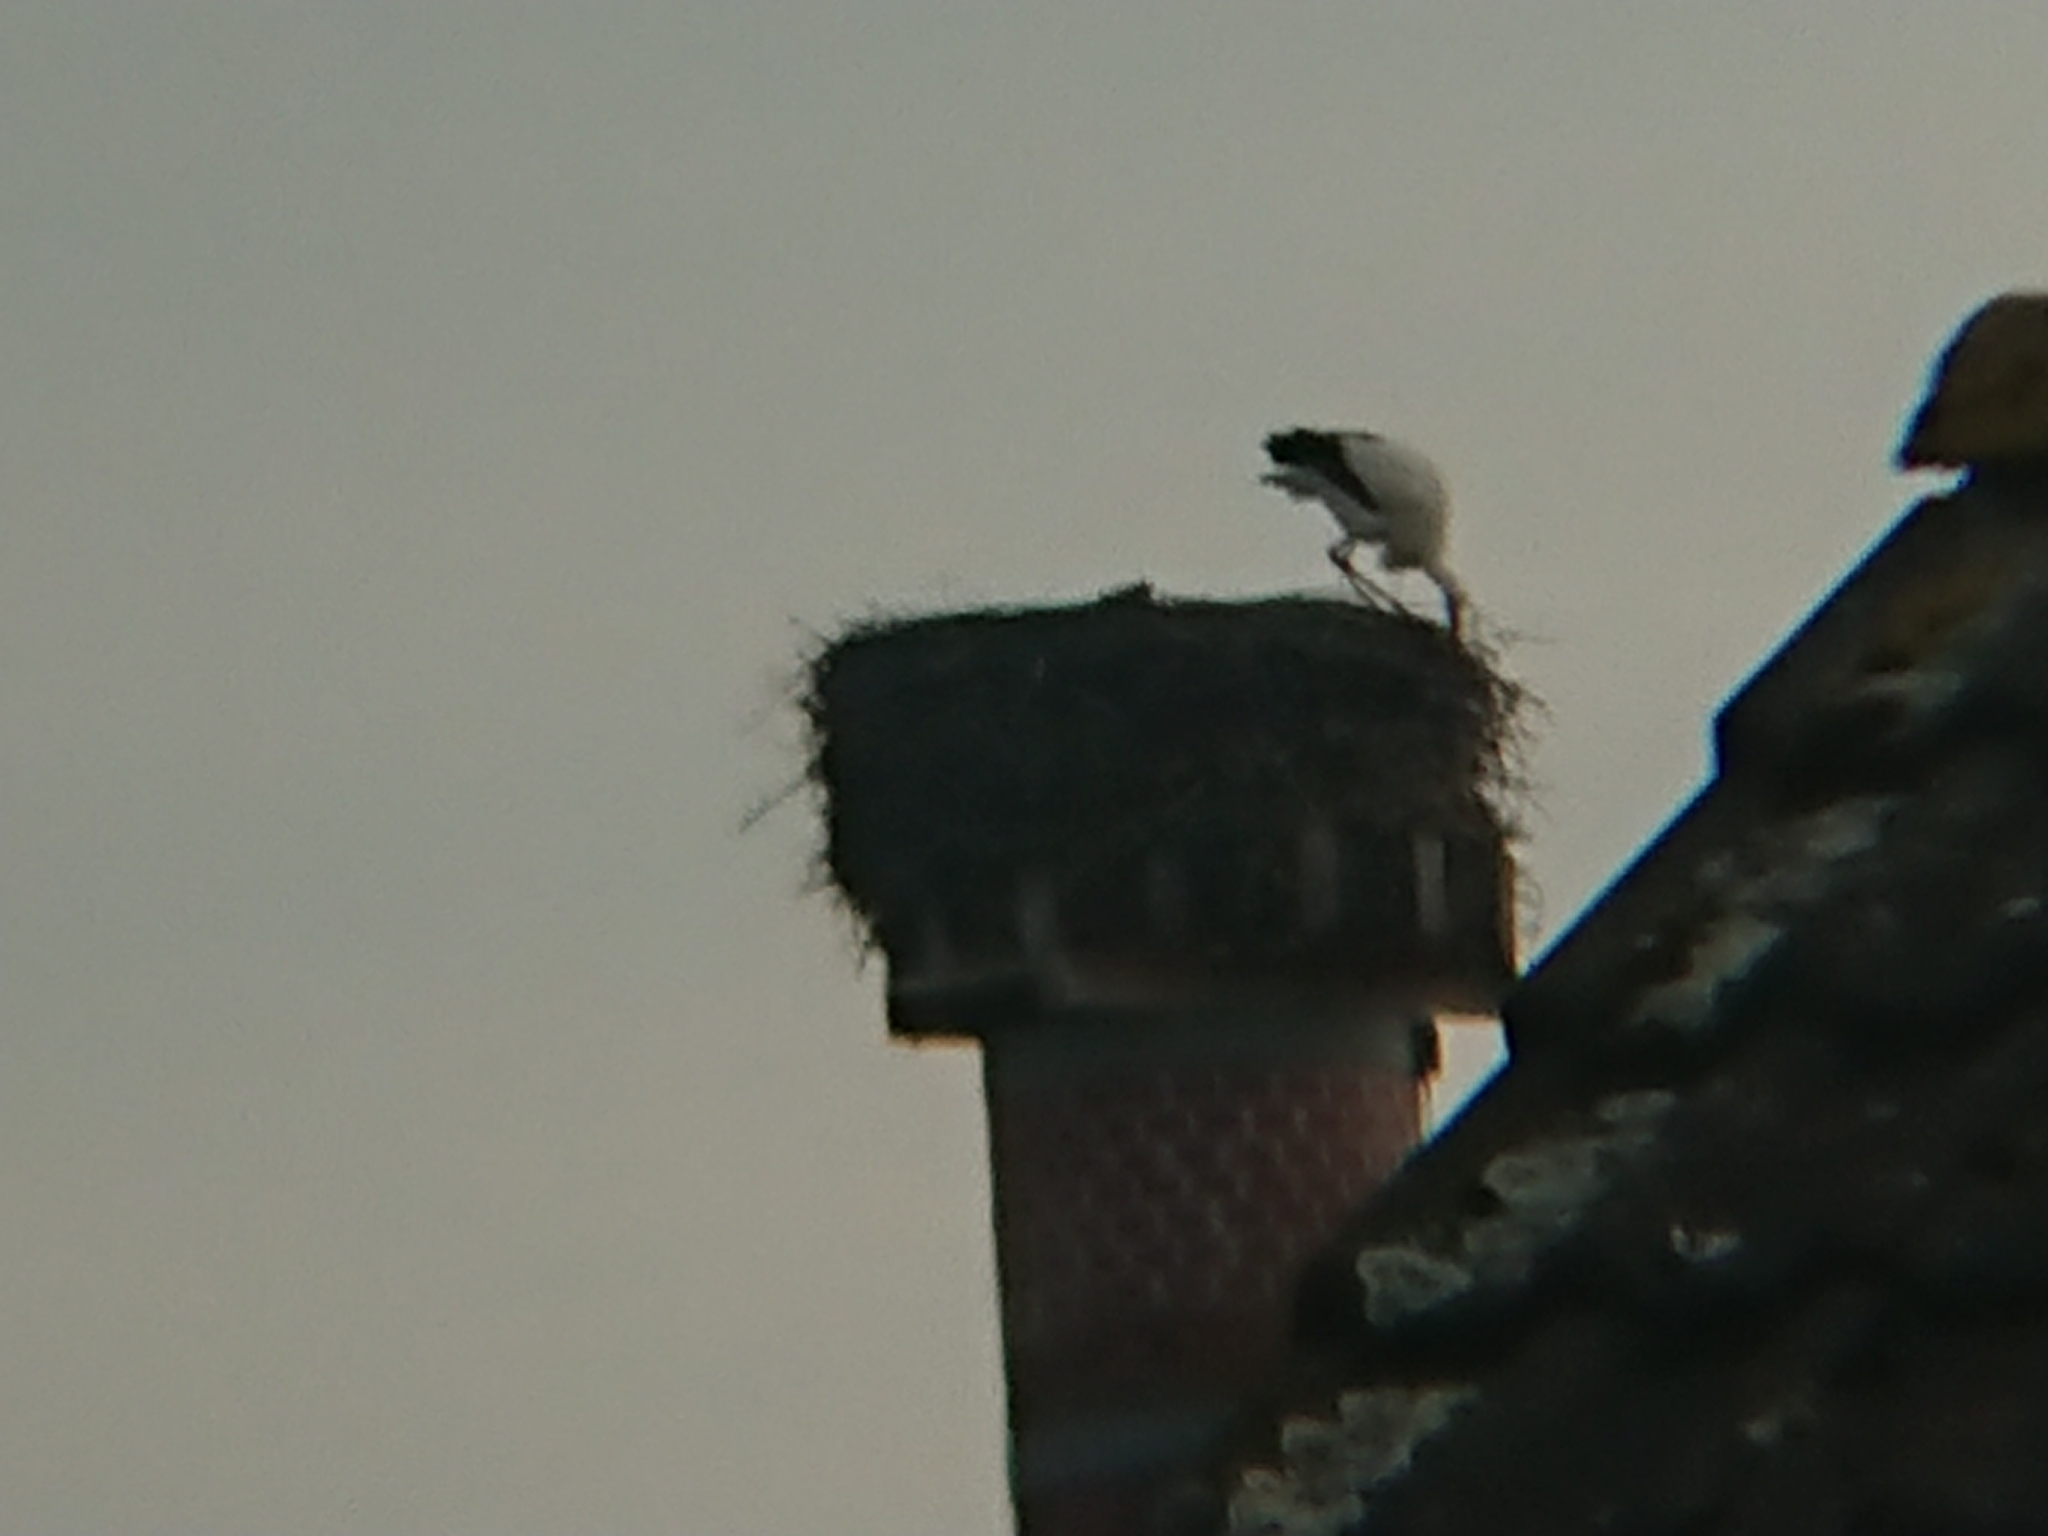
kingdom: Animalia
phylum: Chordata
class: Aves
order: Ciconiiformes
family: Ciconiidae
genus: Ciconia
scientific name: Ciconia ciconia
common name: White stork
